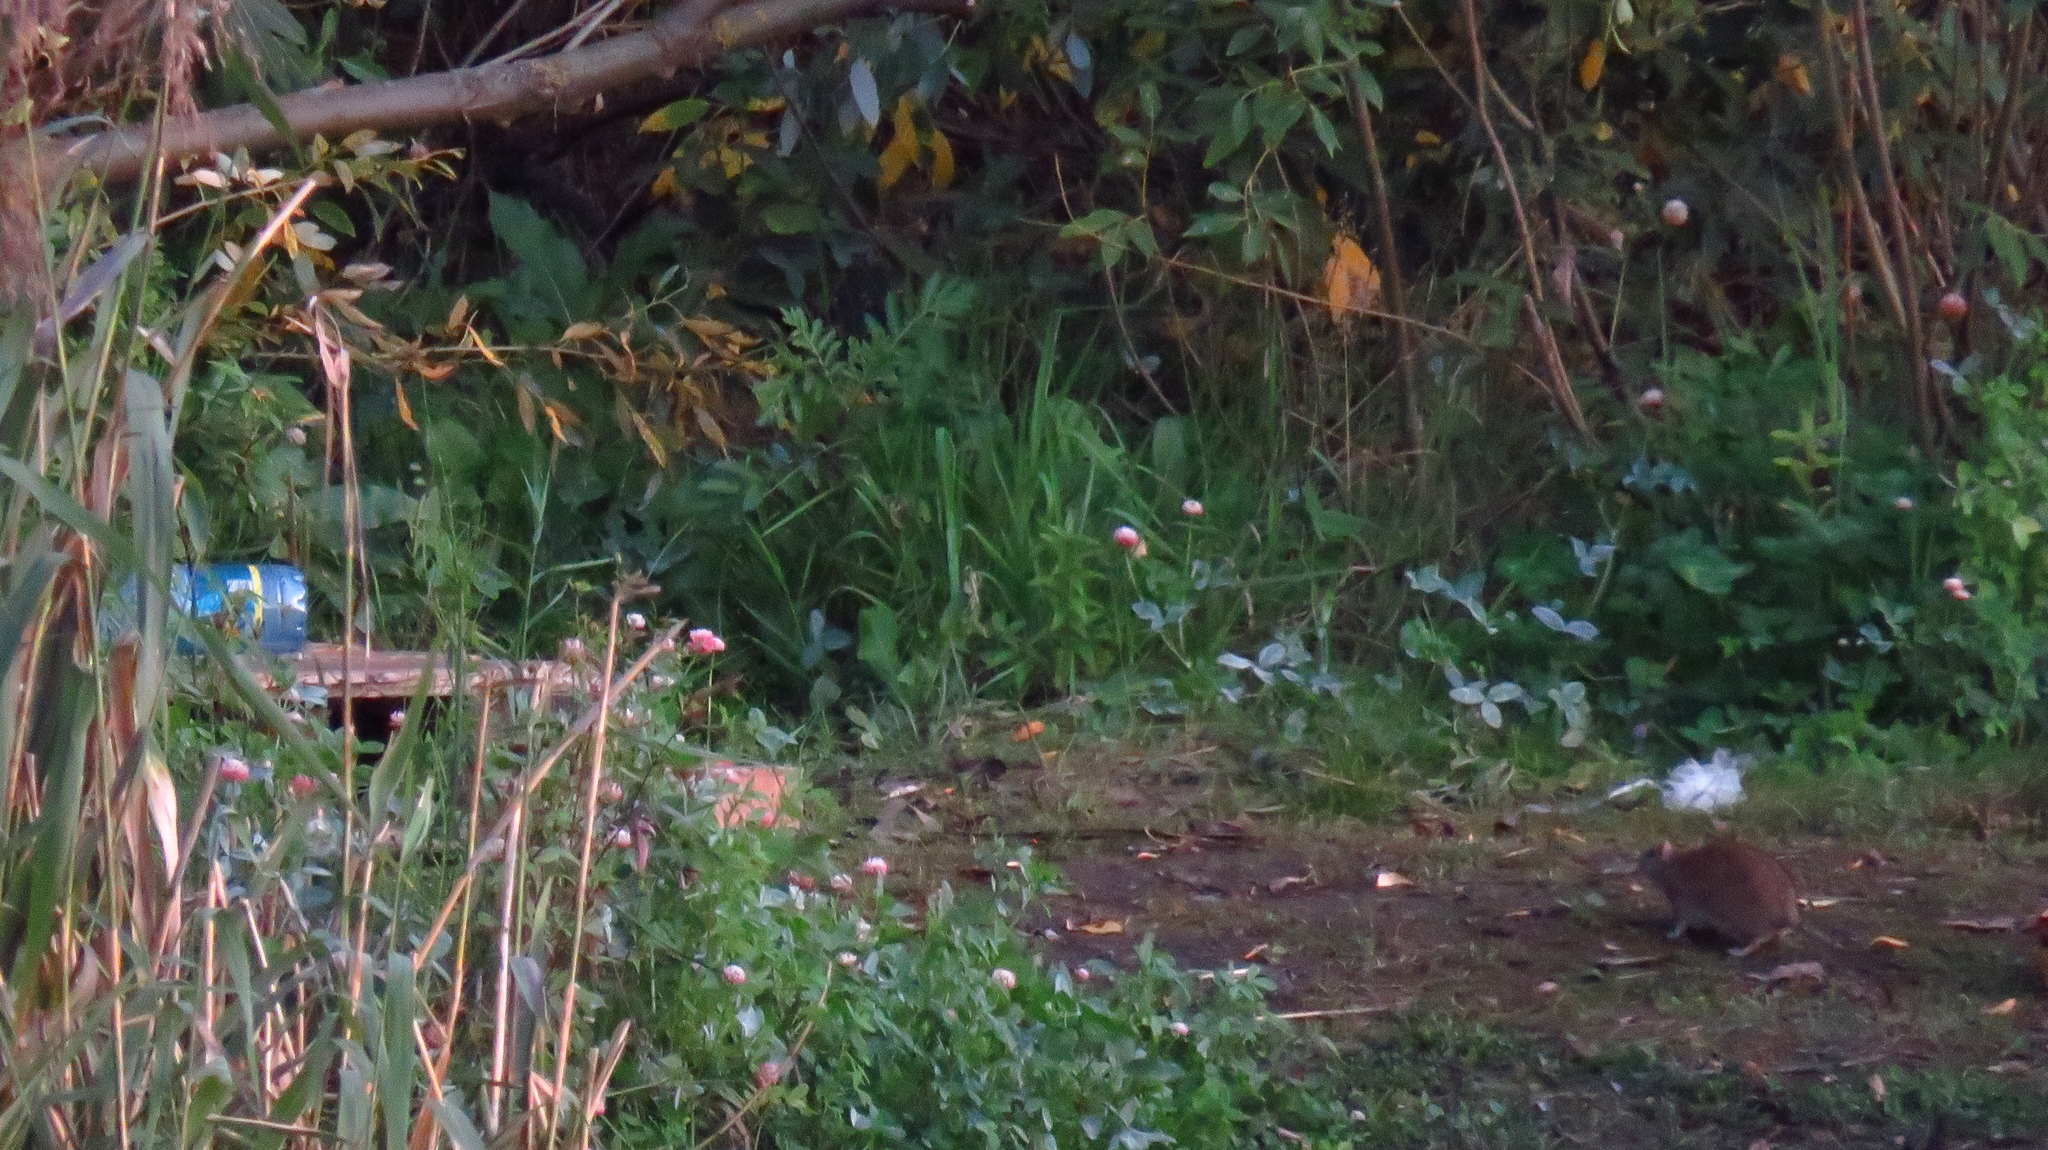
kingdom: Animalia
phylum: Chordata
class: Mammalia
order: Rodentia
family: Muridae
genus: Rattus
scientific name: Rattus norvegicus
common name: Brown rat
